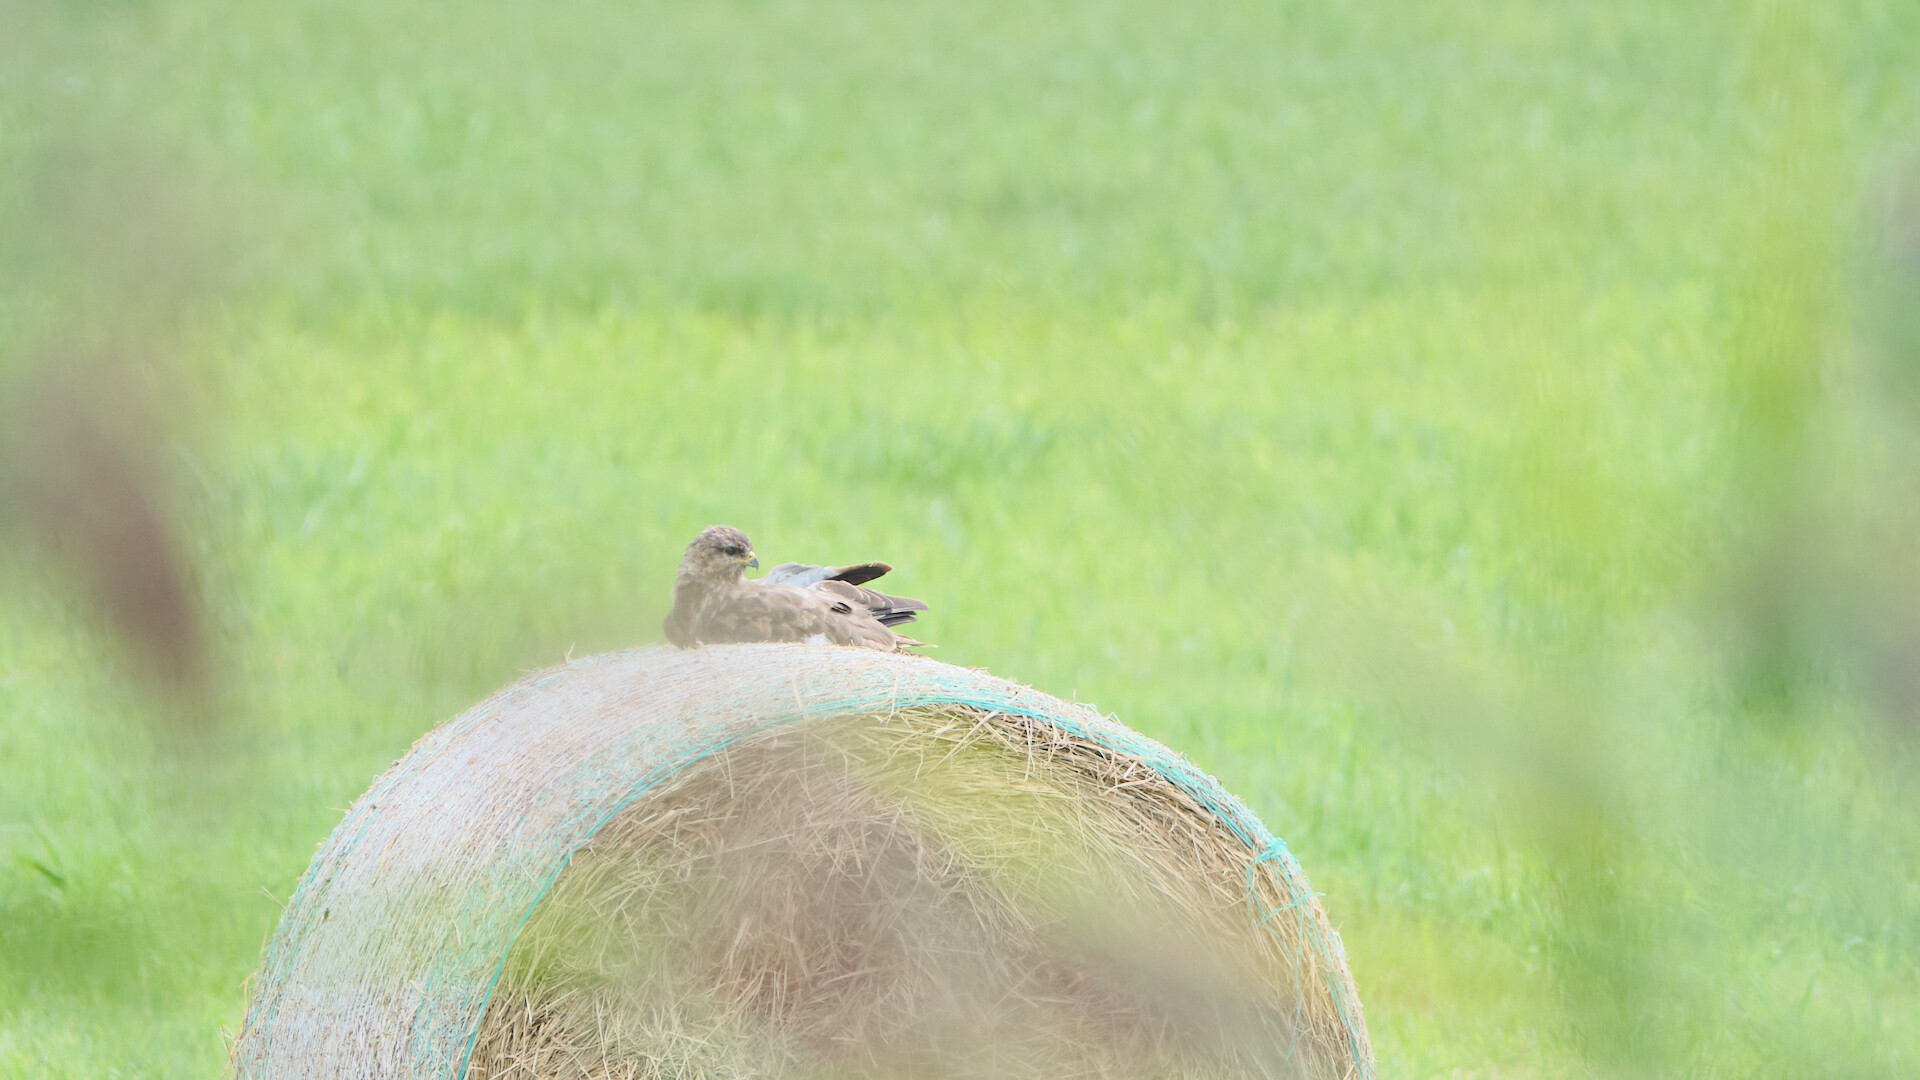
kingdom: Animalia
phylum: Chordata
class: Aves
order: Accipitriformes
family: Accipitridae
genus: Buteo
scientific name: Buteo buteo
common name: Common buzzard
